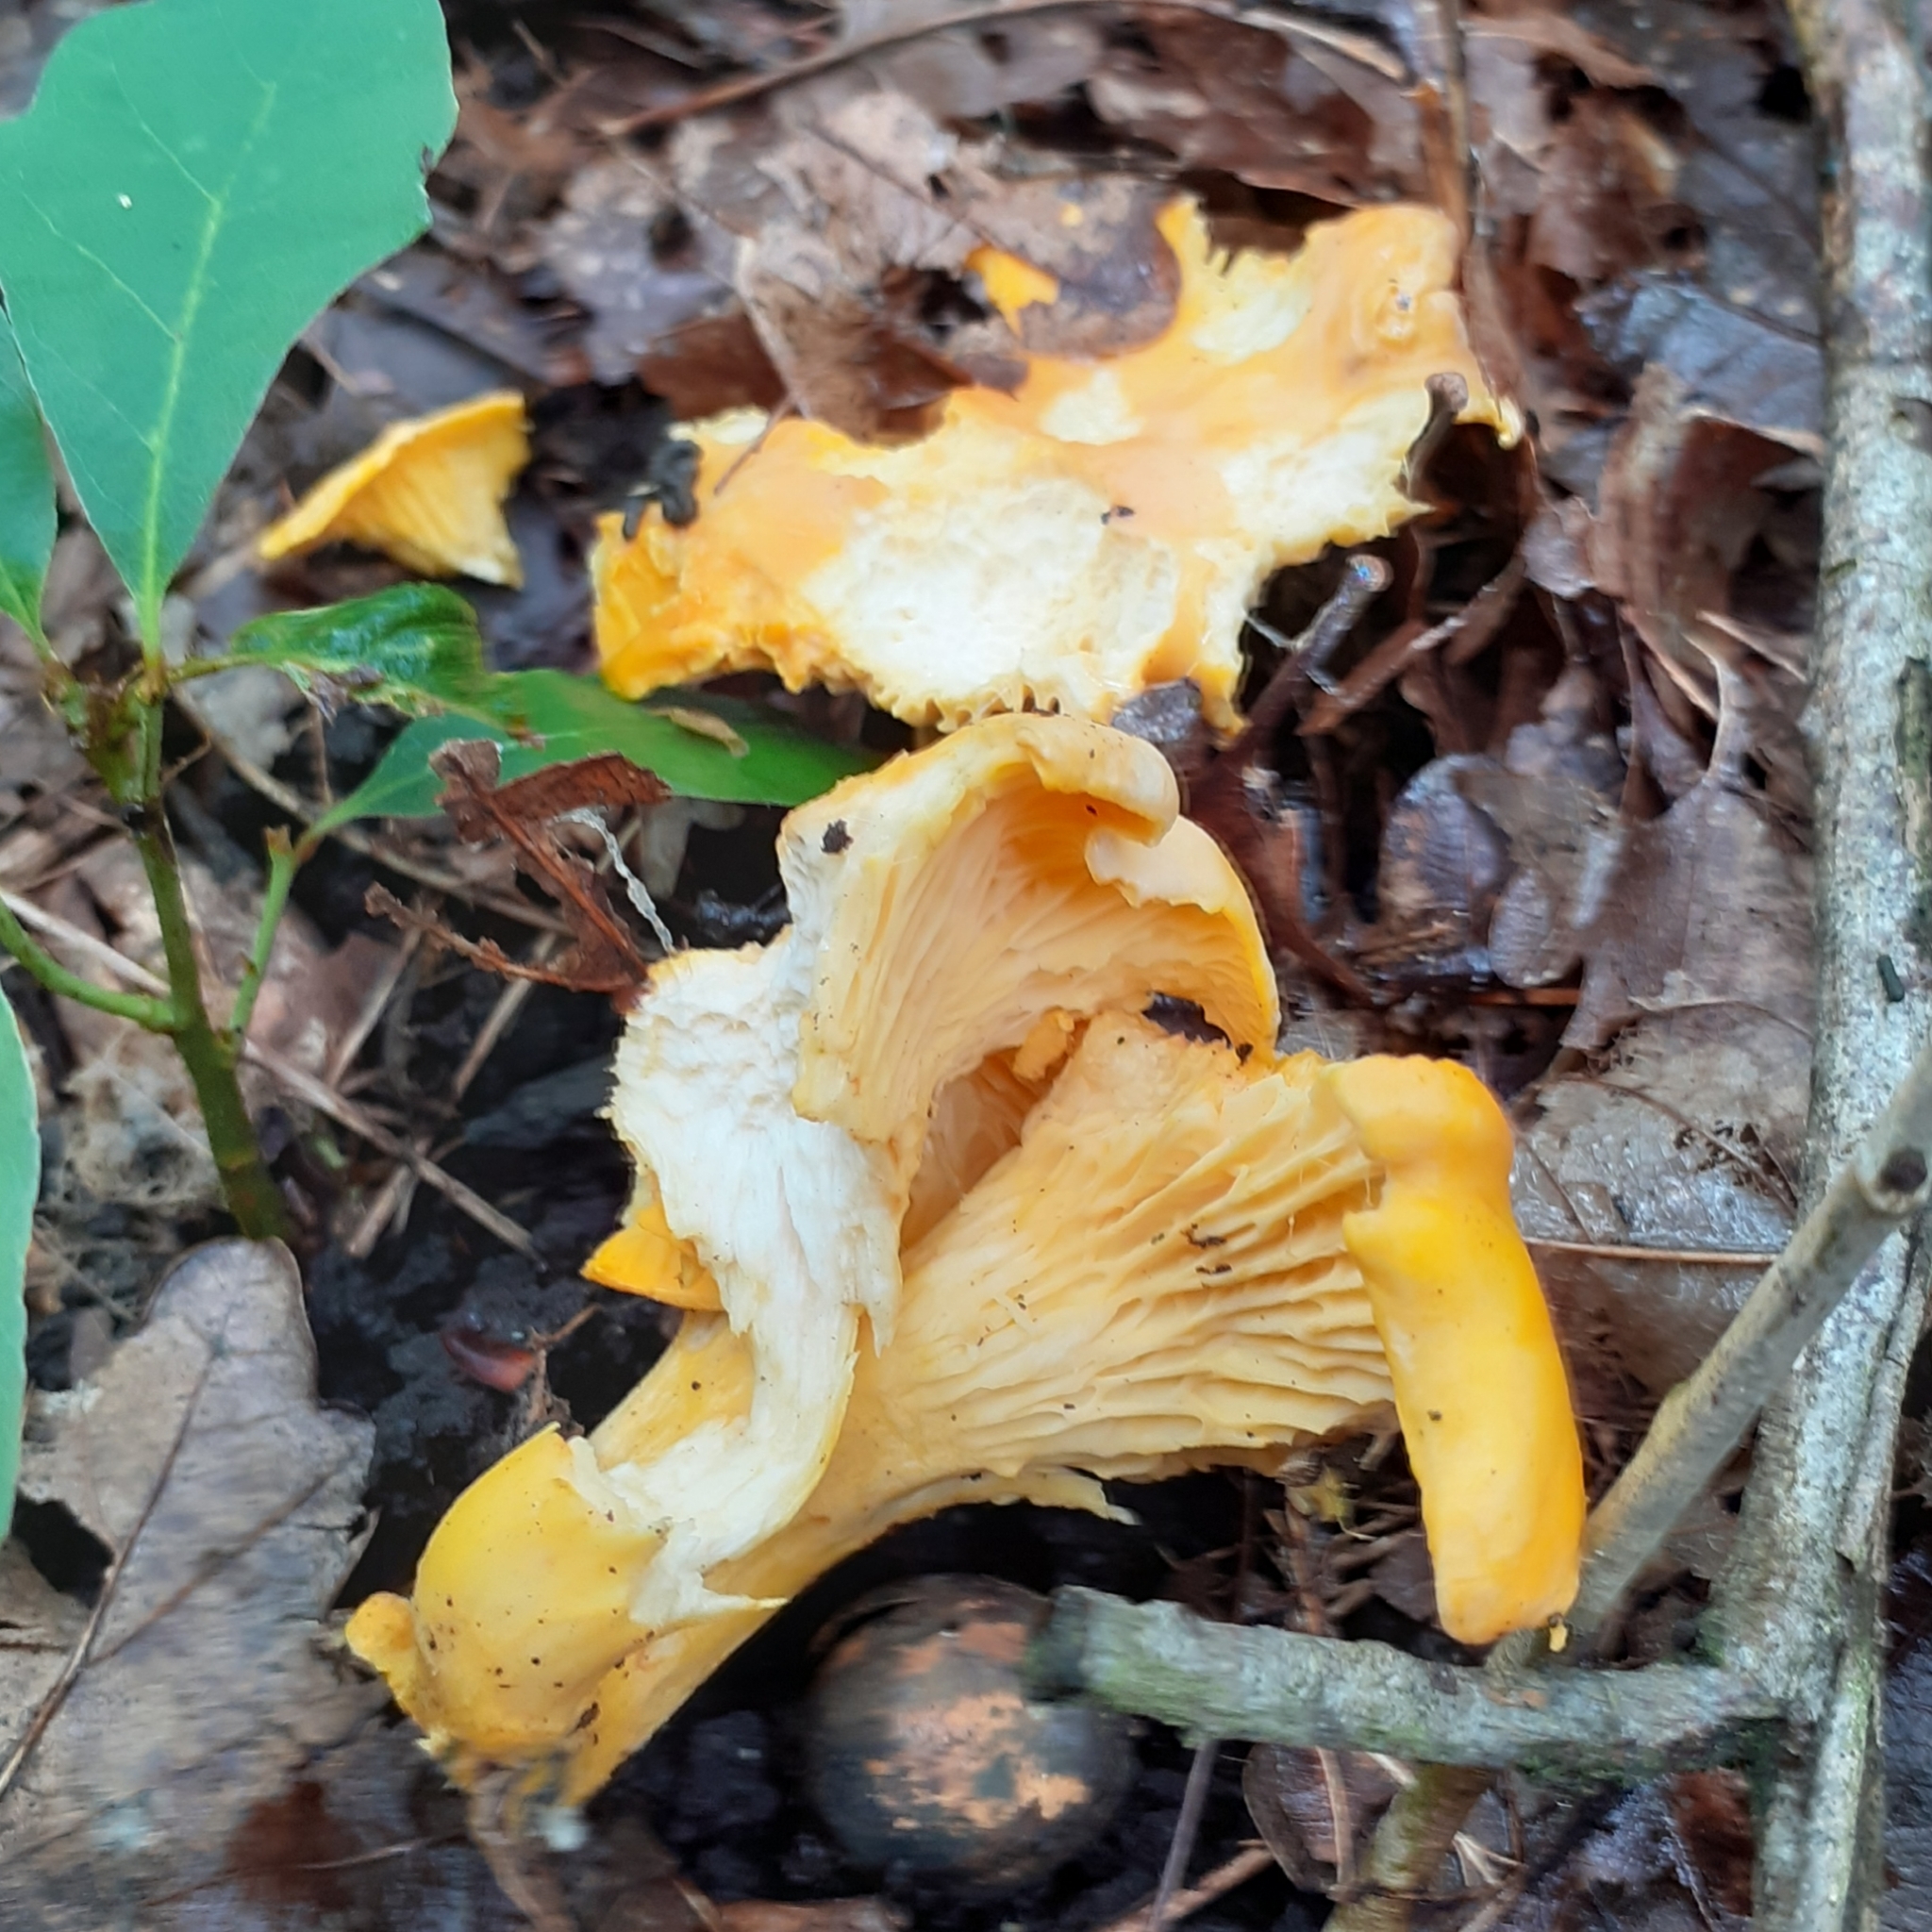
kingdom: Fungi
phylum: Basidiomycota
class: Agaricomycetes
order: Cantharellales
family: Hydnaceae
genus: Cantharellus
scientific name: Cantharellus cibarius
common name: Chanterelle
